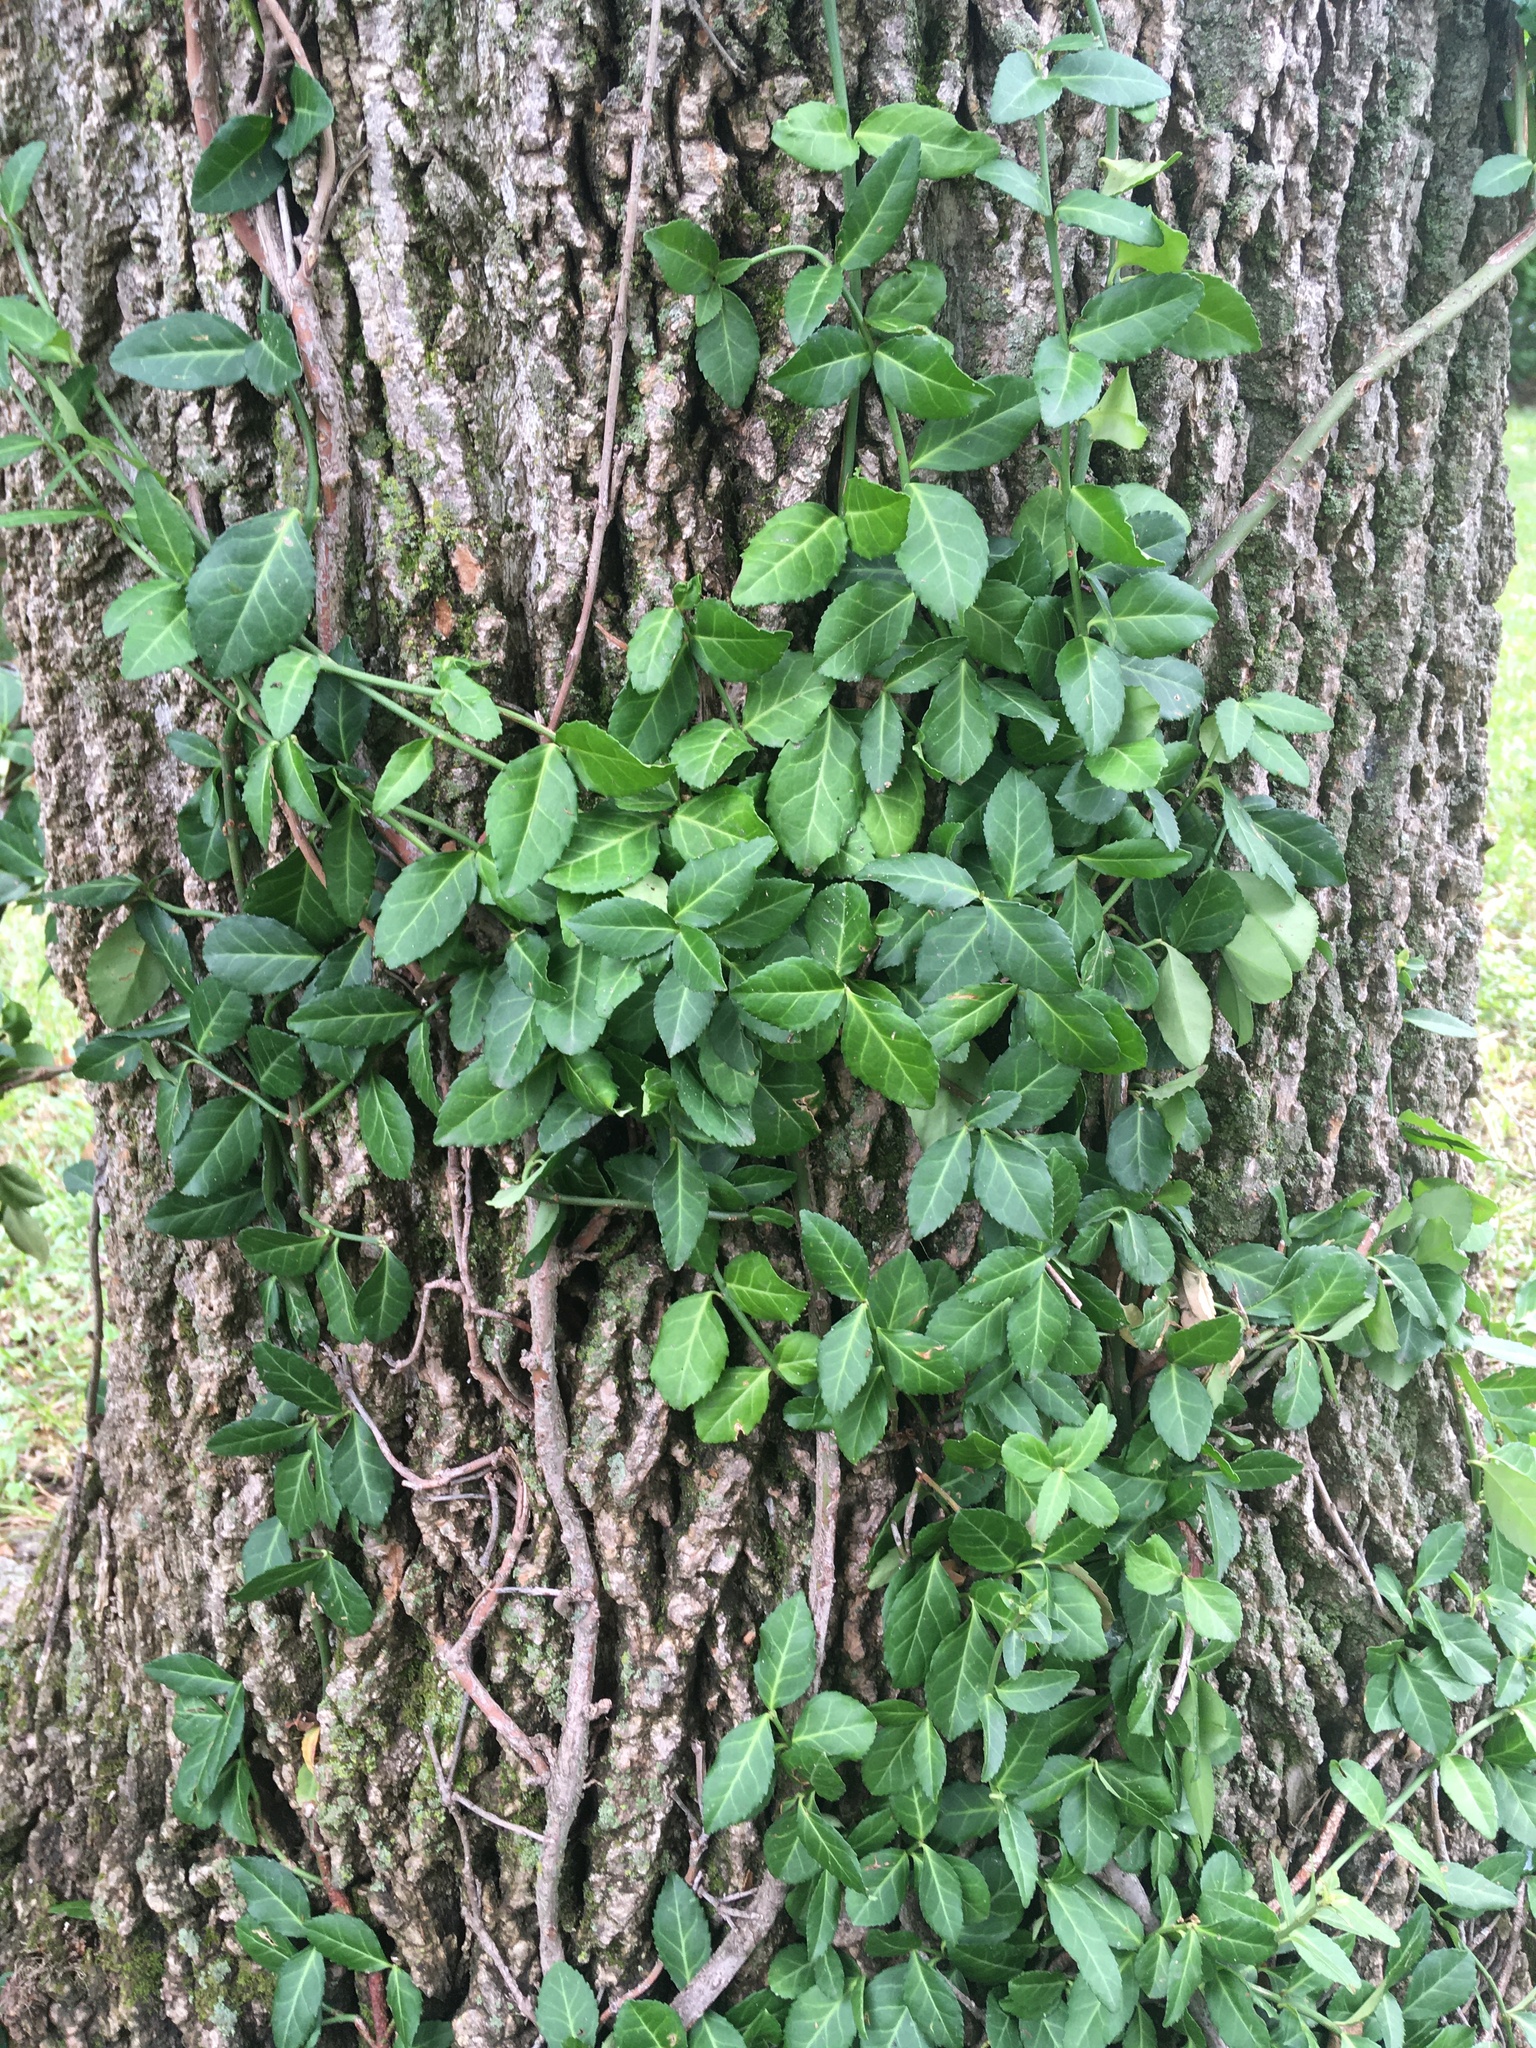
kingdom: Plantae
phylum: Tracheophyta
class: Magnoliopsida
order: Celastrales
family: Celastraceae
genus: Euonymus
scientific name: Euonymus fortunei
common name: Climbing euonymus
